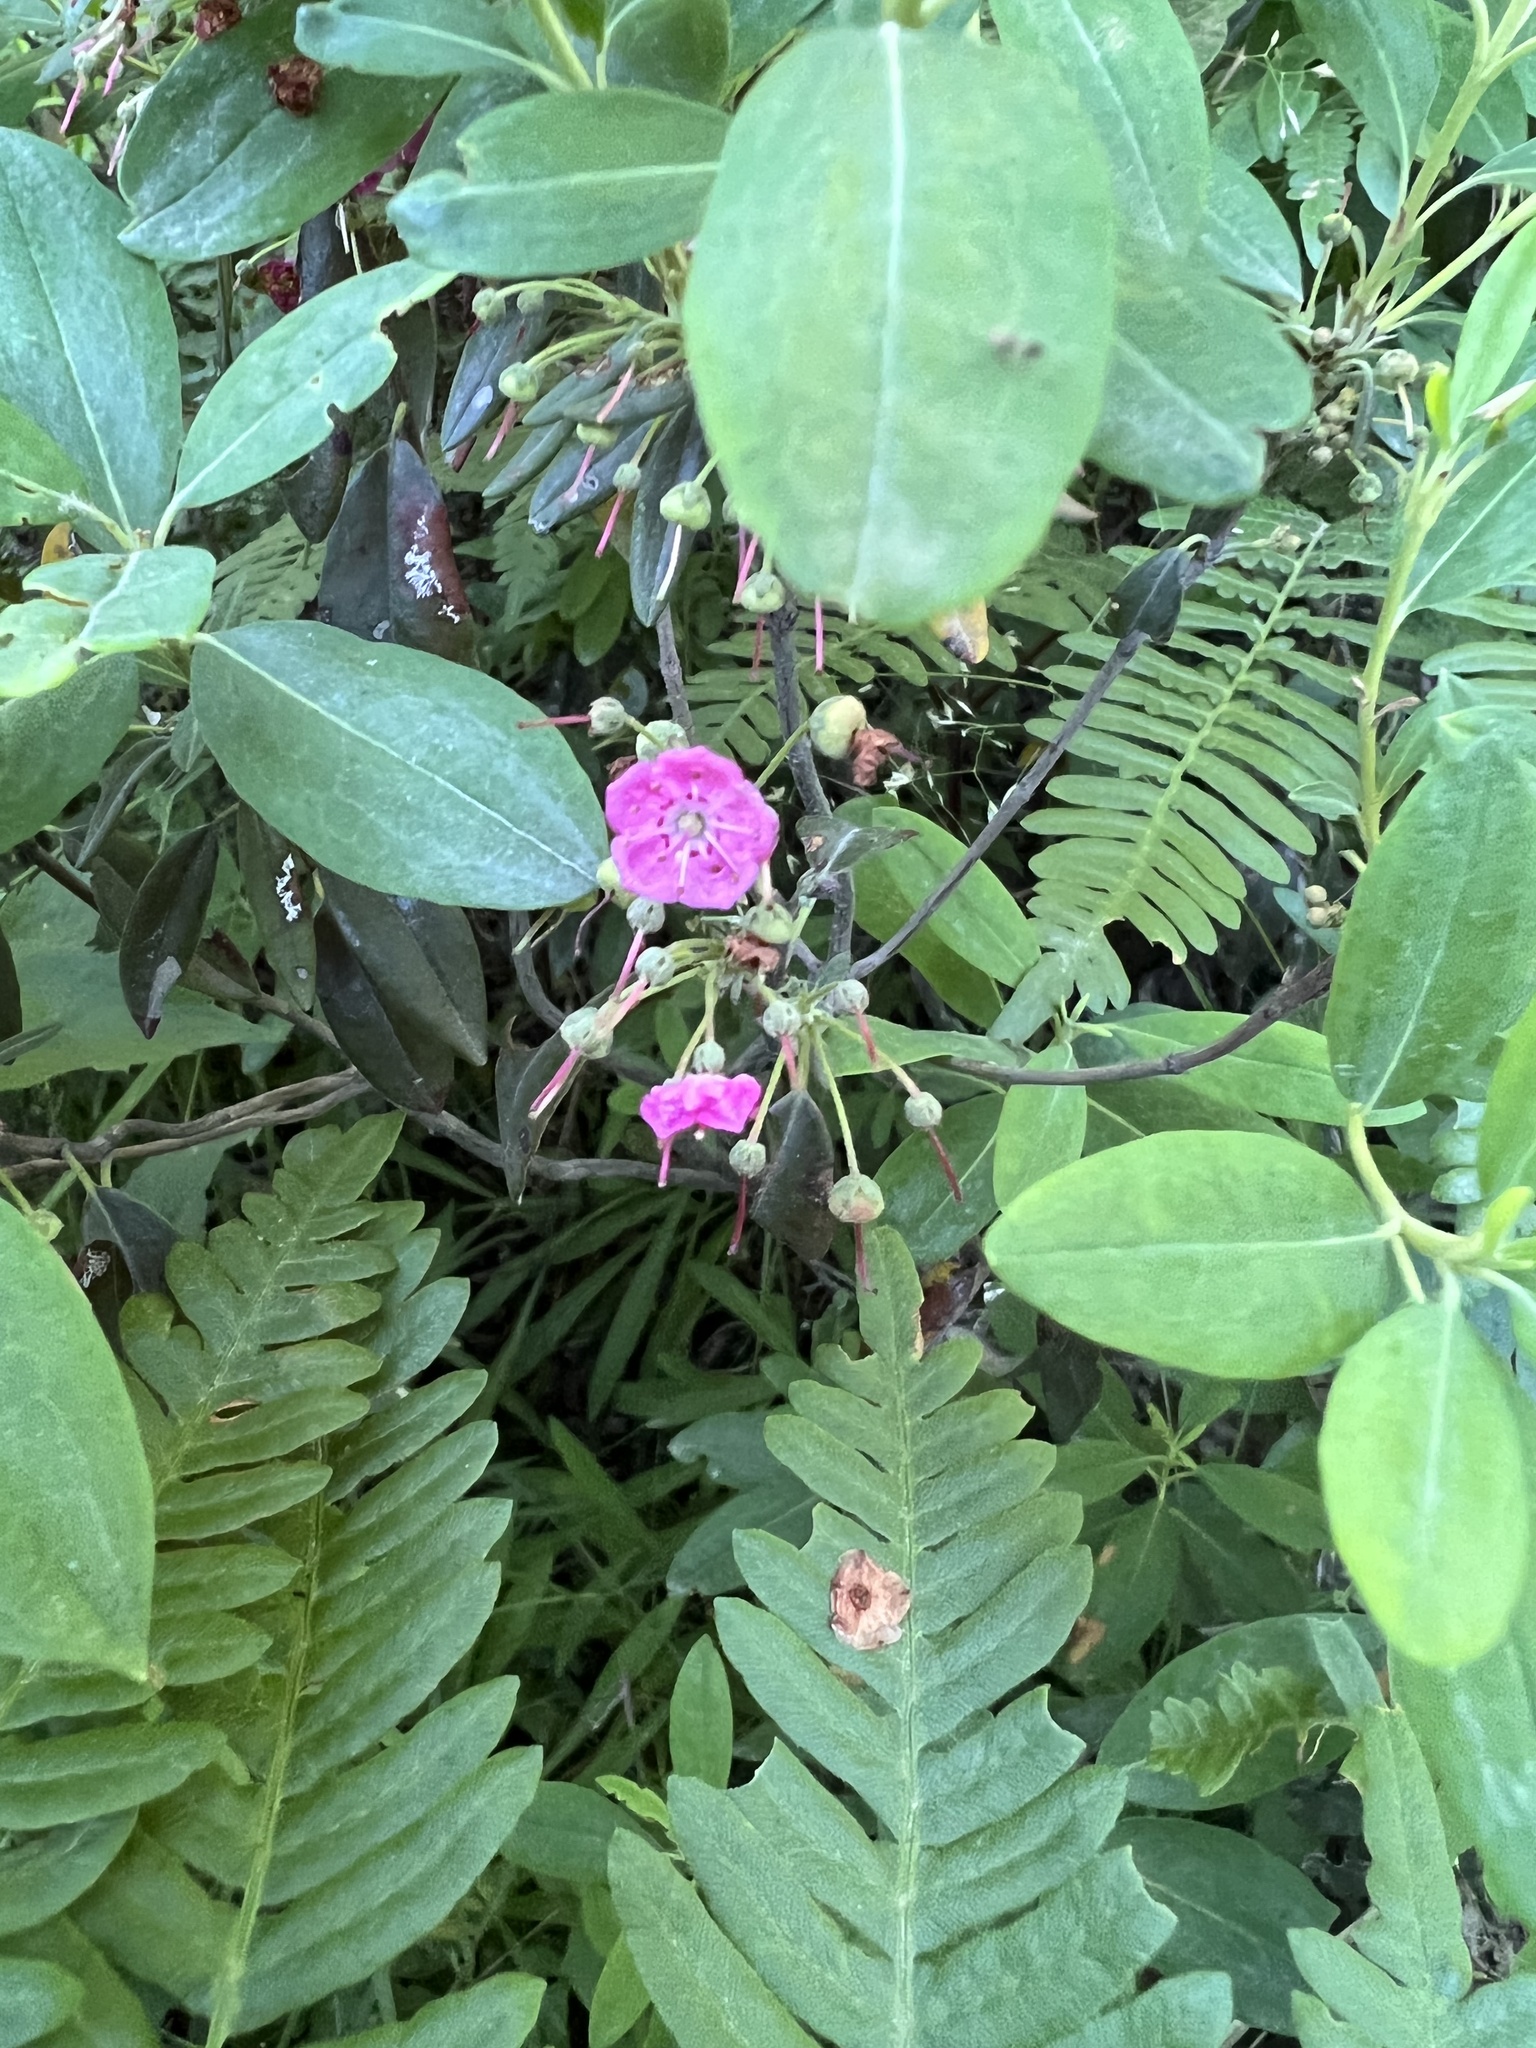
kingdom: Plantae
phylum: Tracheophyta
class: Magnoliopsida
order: Ericales
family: Ericaceae
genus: Kalmia
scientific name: Kalmia angustifolia
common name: Sheep-laurel
